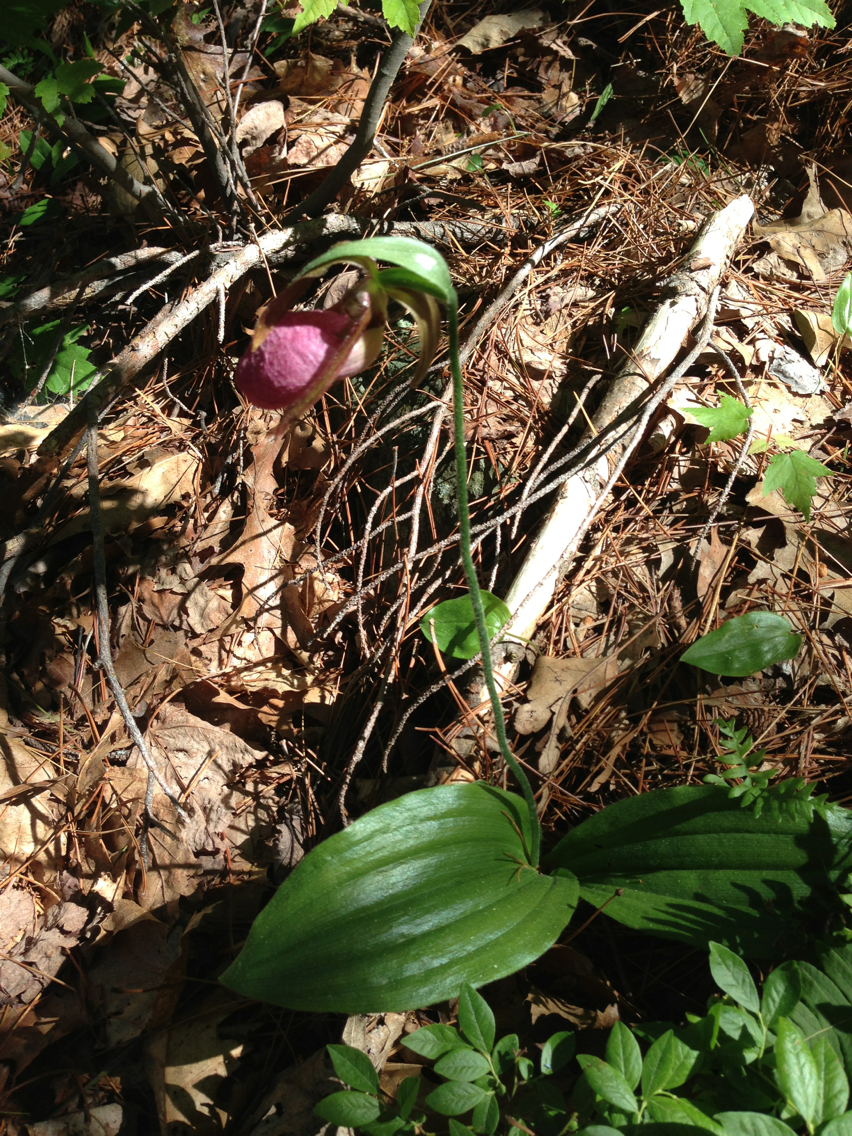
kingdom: Plantae
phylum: Tracheophyta
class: Liliopsida
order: Asparagales
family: Orchidaceae
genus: Cypripedium
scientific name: Cypripedium acaule
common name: Pink lady's-slipper
